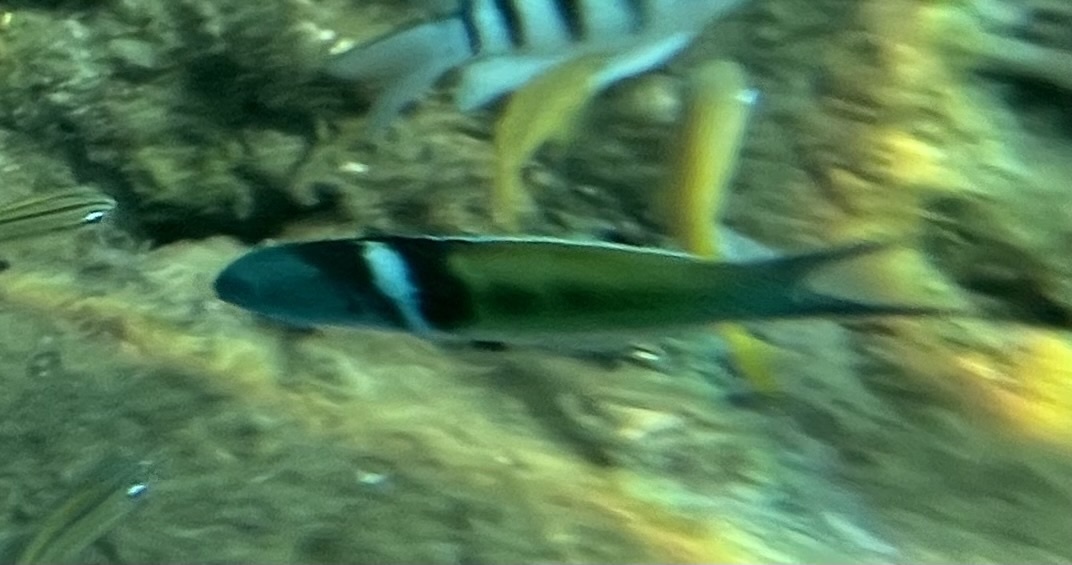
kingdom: Animalia
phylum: Chordata
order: Perciformes
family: Labridae
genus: Thalassoma
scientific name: Thalassoma bifasciatum
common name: Bluehead wrasse
